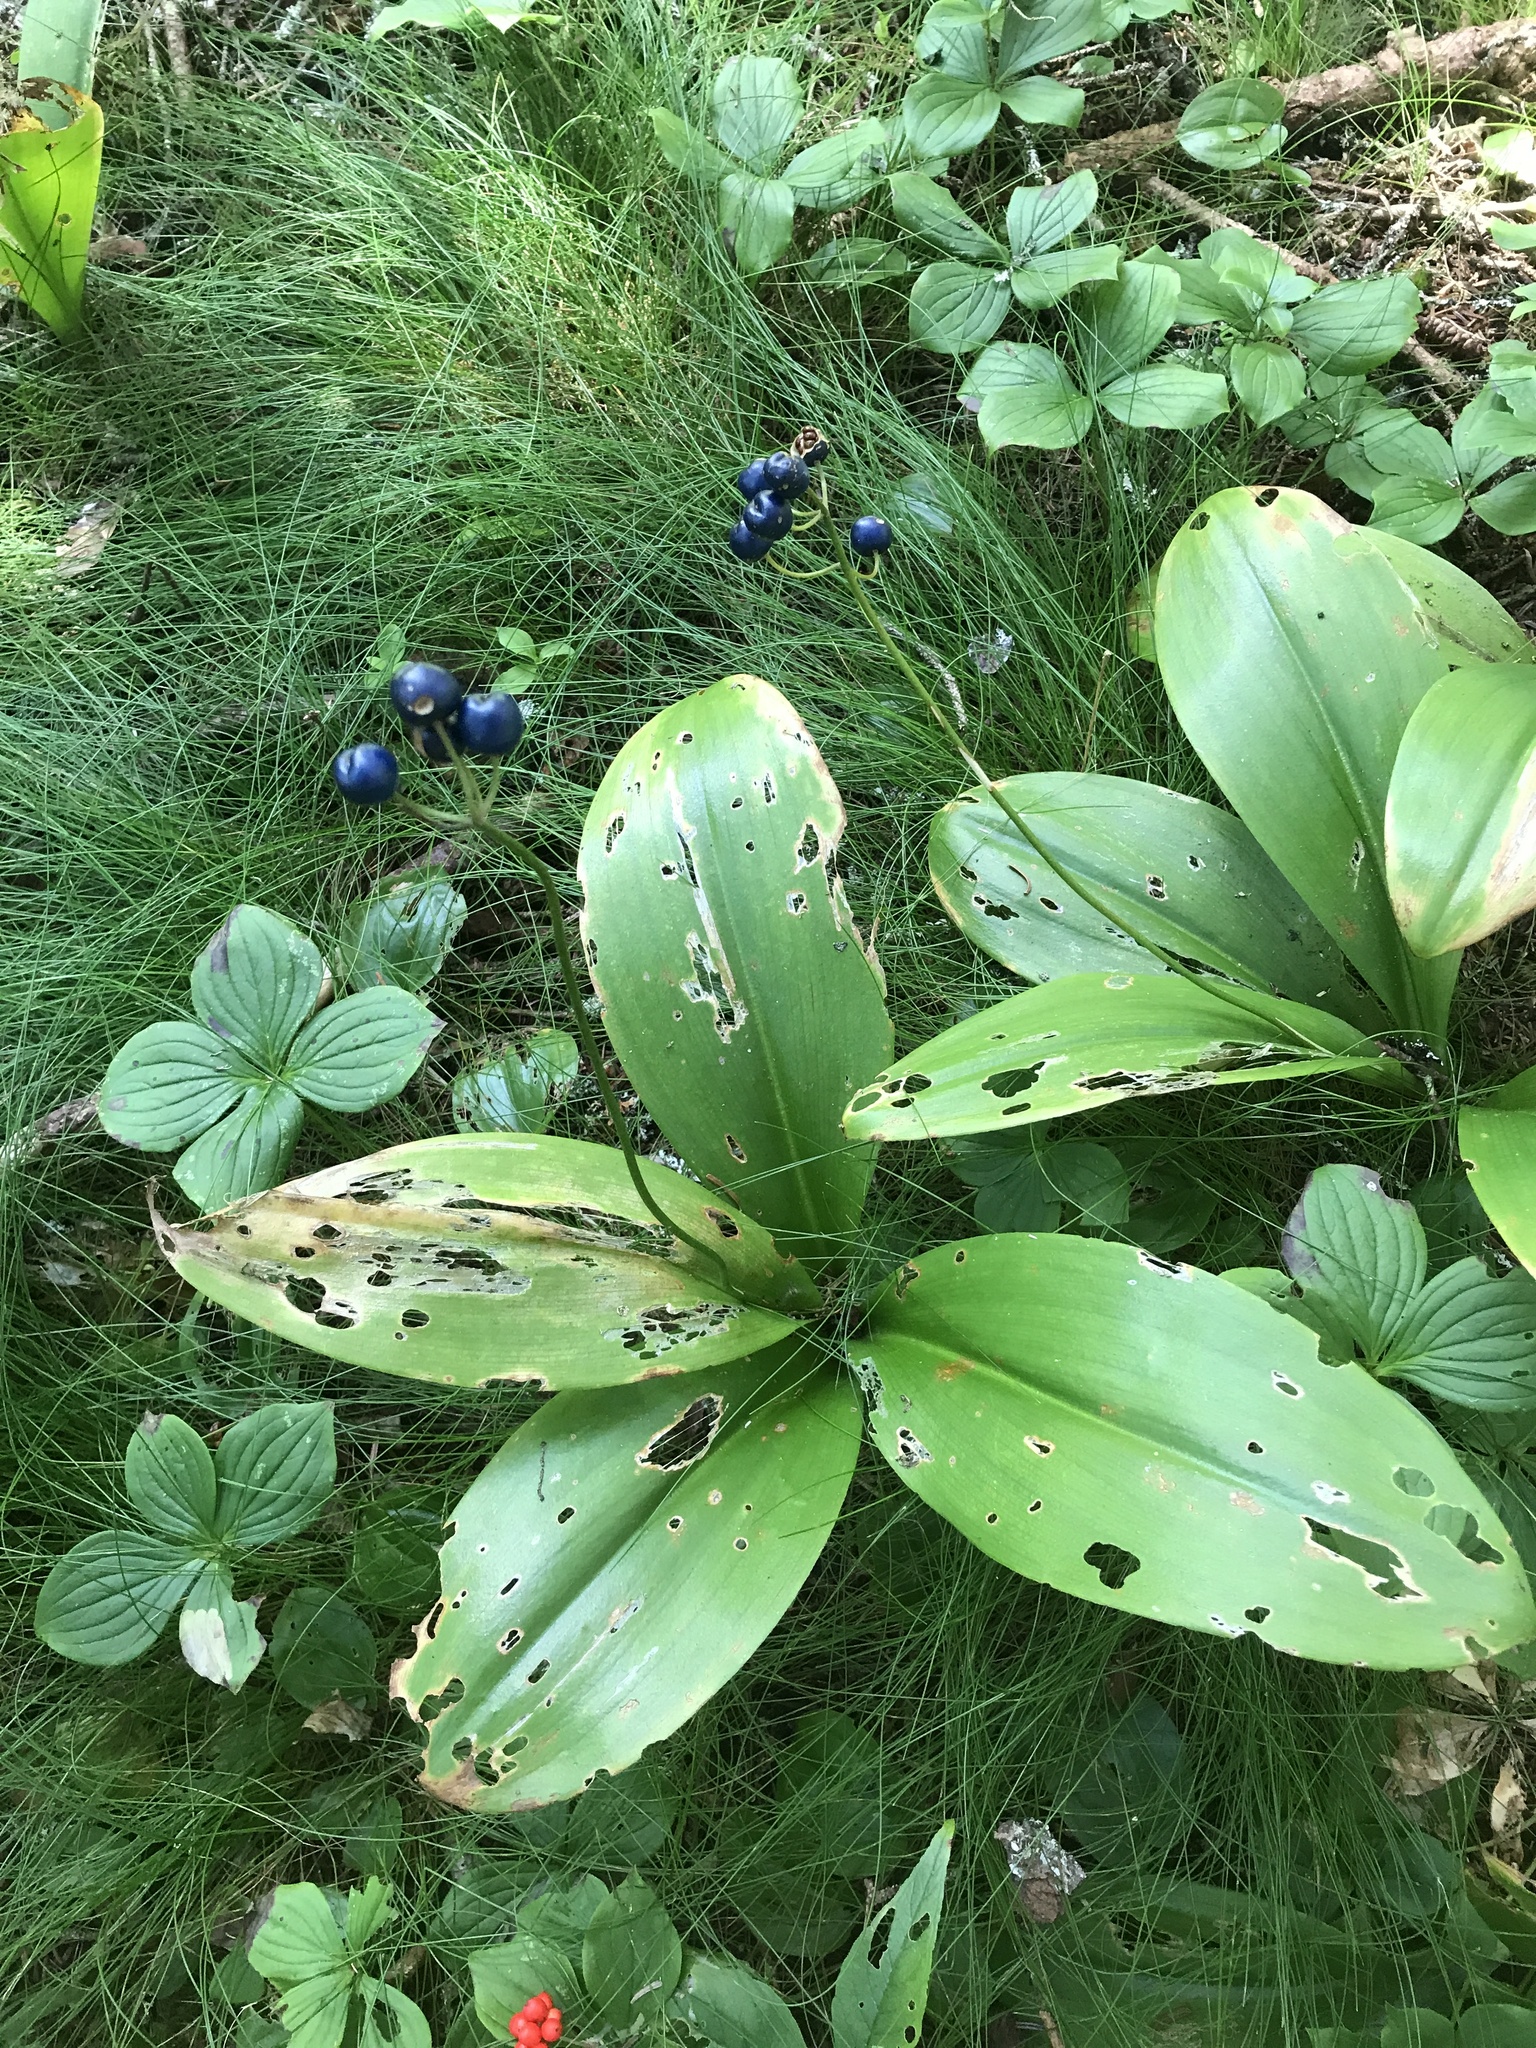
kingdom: Plantae
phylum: Tracheophyta
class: Liliopsida
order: Liliales
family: Liliaceae
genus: Clintonia
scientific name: Clintonia borealis
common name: Yellow clintonia
